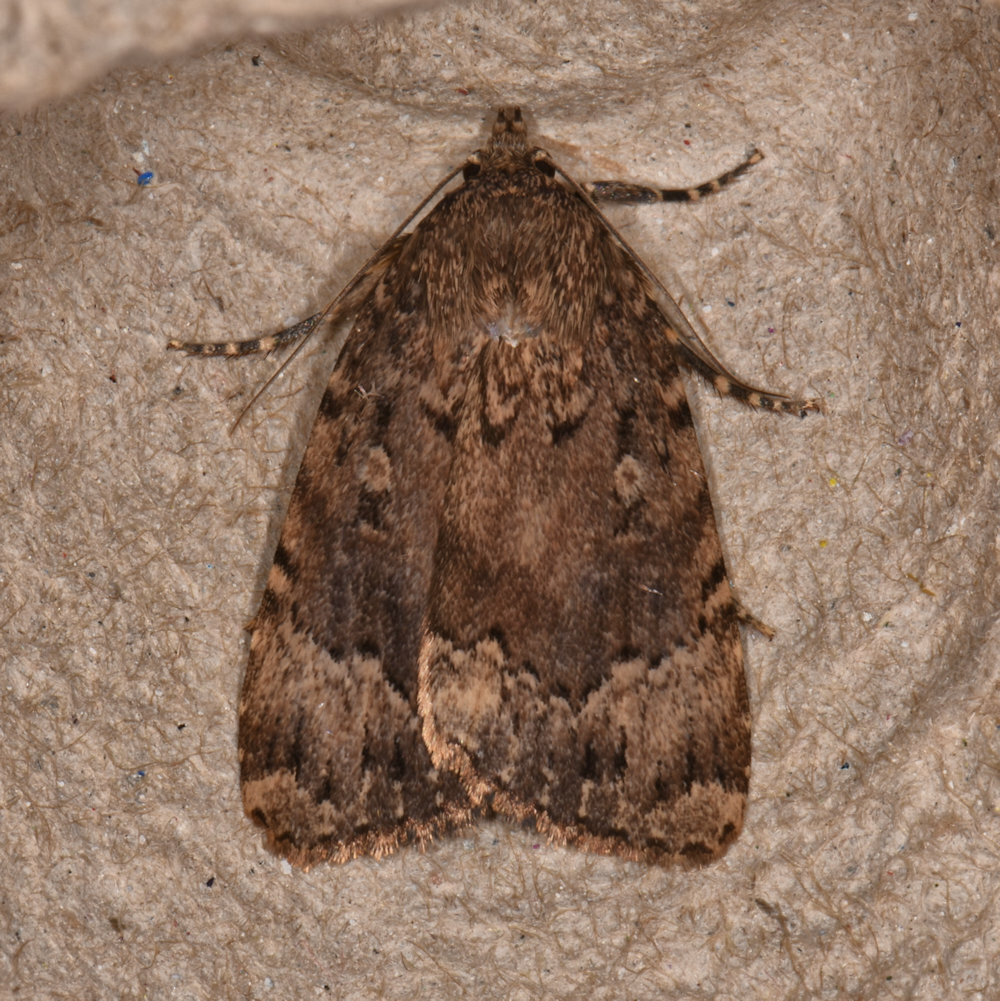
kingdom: Animalia
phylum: Arthropoda
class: Insecta
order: Lepidoptera
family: Noctuidae
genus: Amphipyra
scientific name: Amphipyra pyramidoides
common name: American copper underwing
